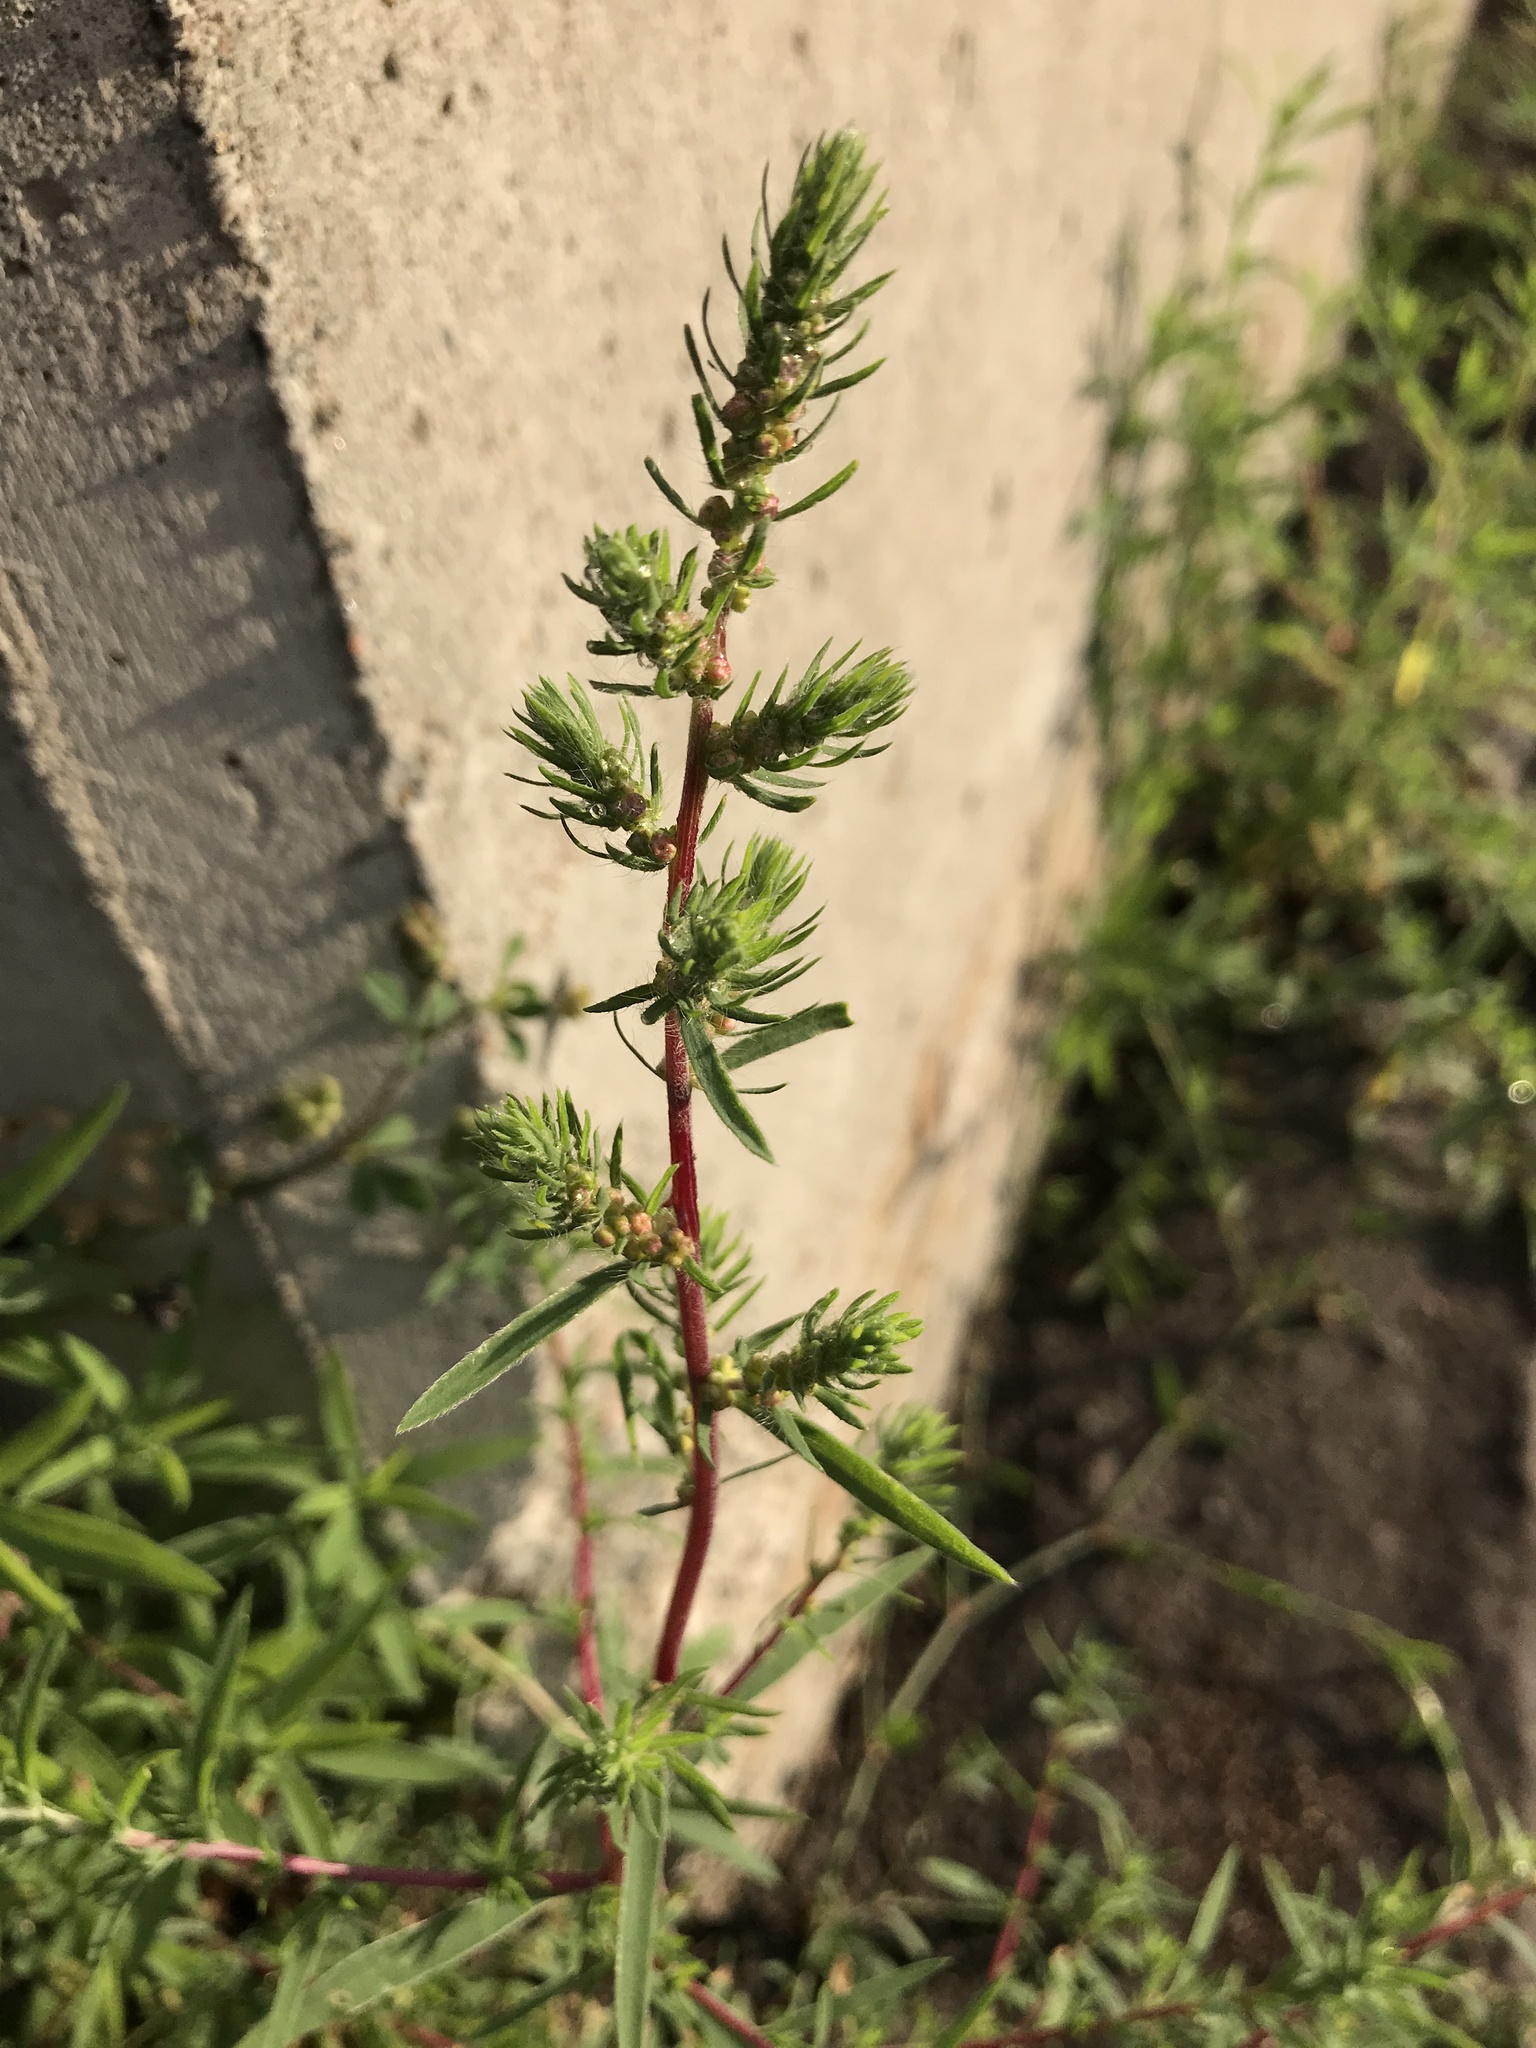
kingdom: Plantae
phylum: Tracheophyta
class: Magnoliopsida
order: Caryophyllales
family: Amaranthaceae
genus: Bassia
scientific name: Bassia scoparia
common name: Belvedere
